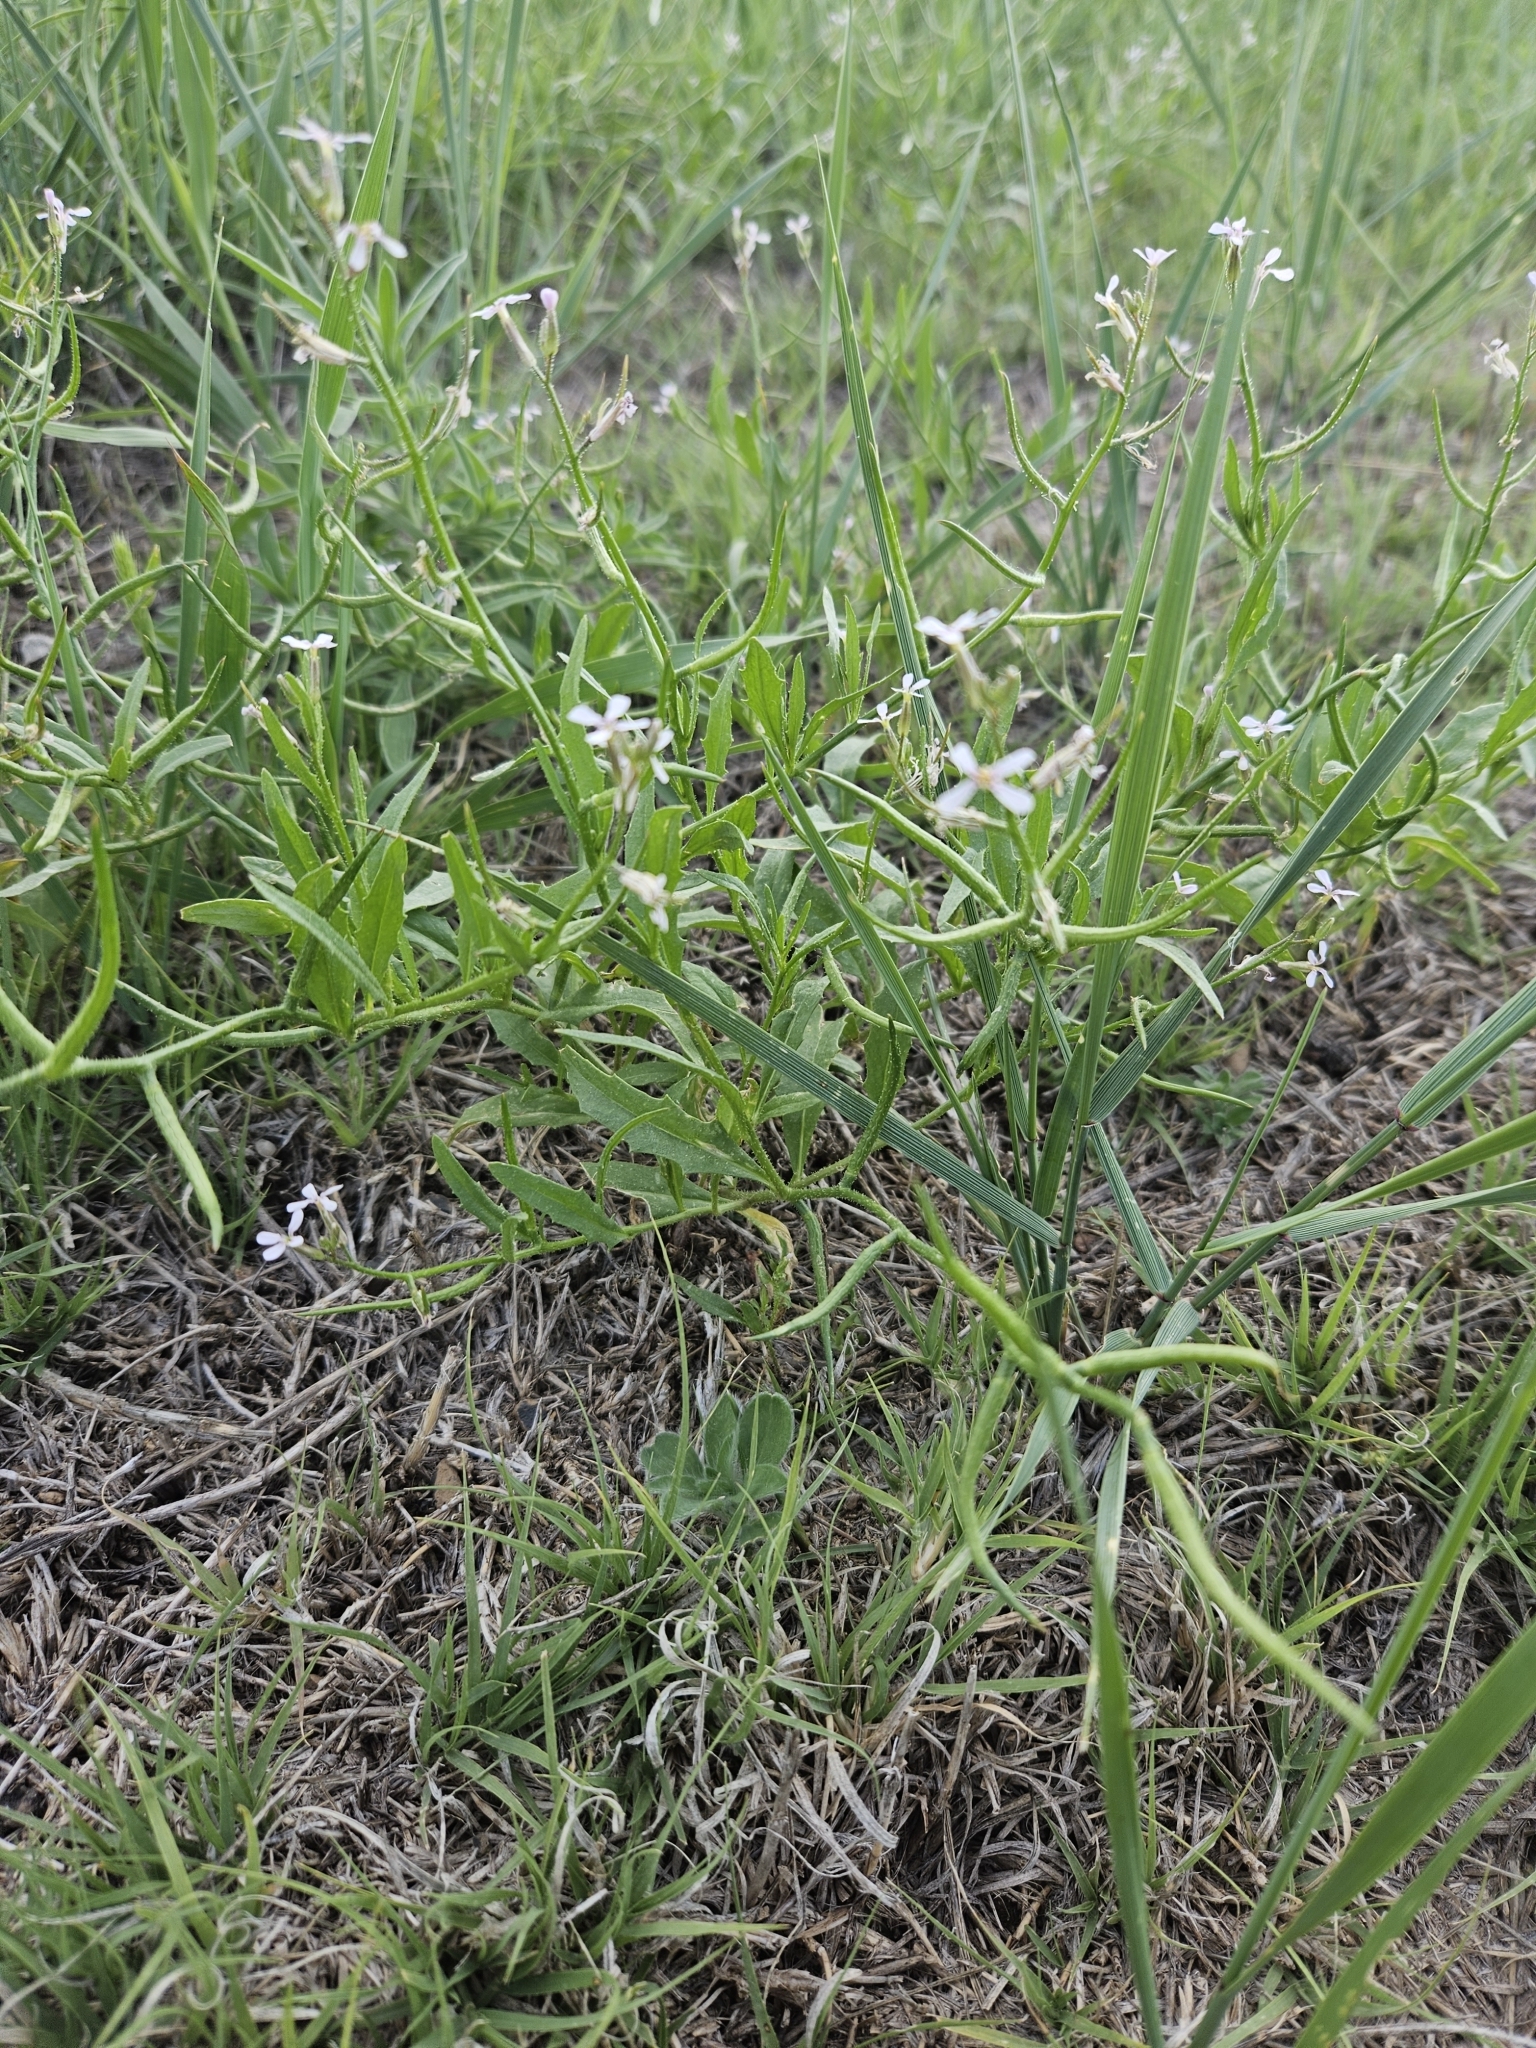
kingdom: Plantae
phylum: Tracheophyta
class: Magnoliopsida
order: Brassicales
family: Brassicaceae
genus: Chorispora
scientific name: Chorispora tenella
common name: Crossflower
